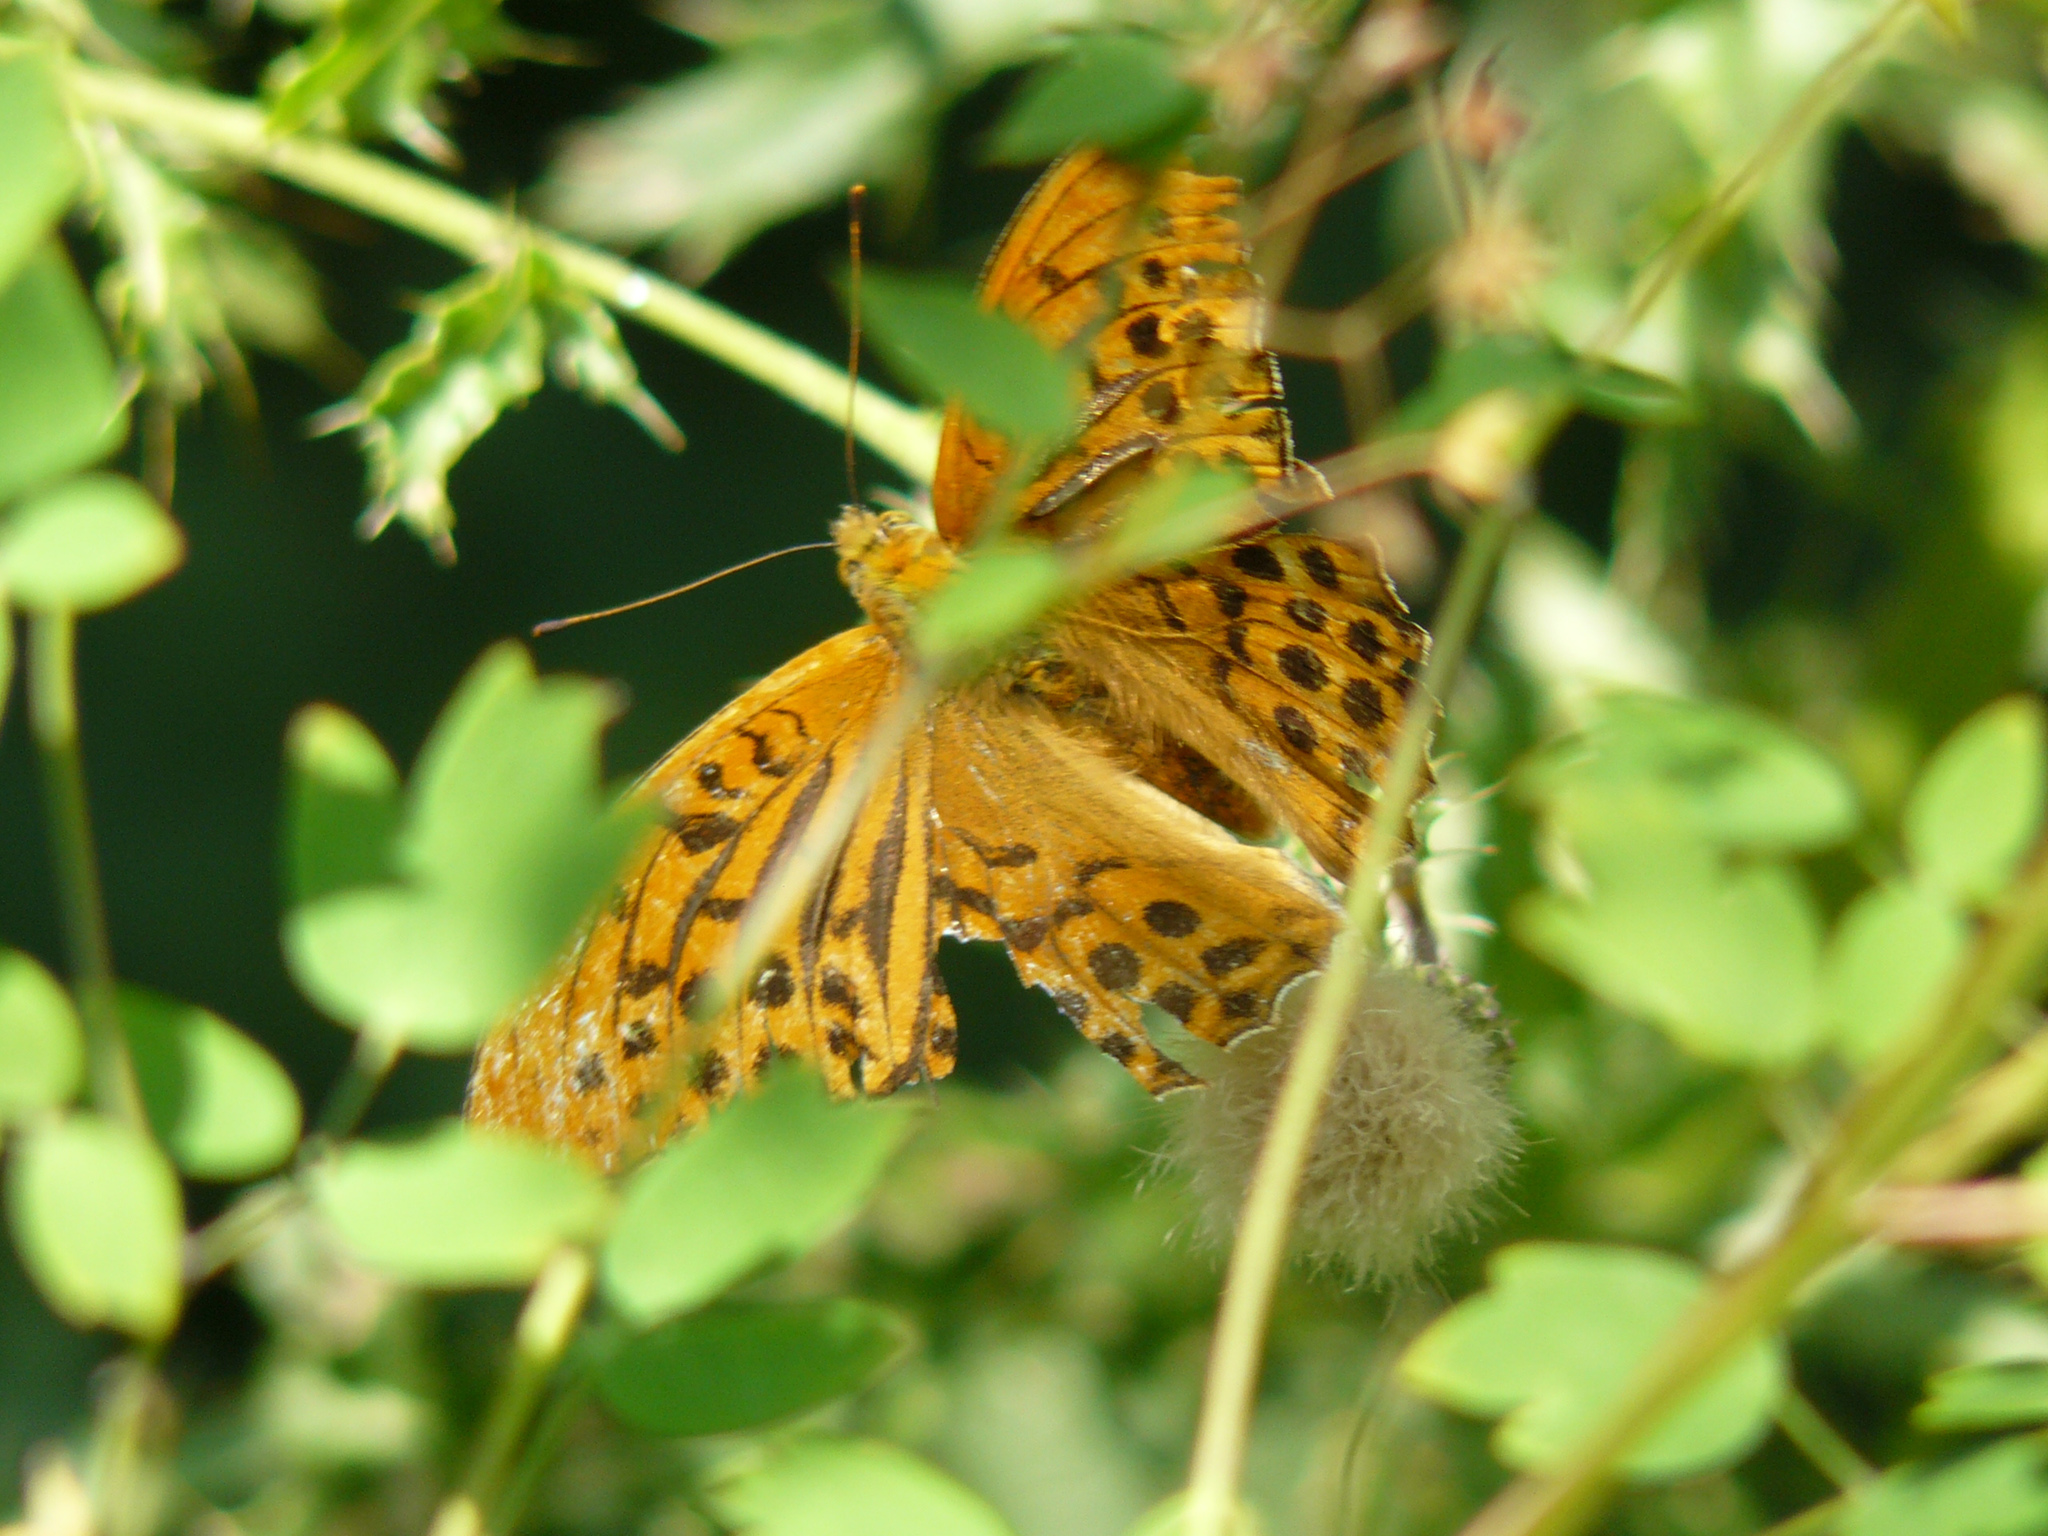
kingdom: Animalia
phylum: Arthropoda
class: Insecta
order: Lepidoptera
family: Nymphalidae
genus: Argynnis
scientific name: Argynnis paphia
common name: Silver-washed fritillary
